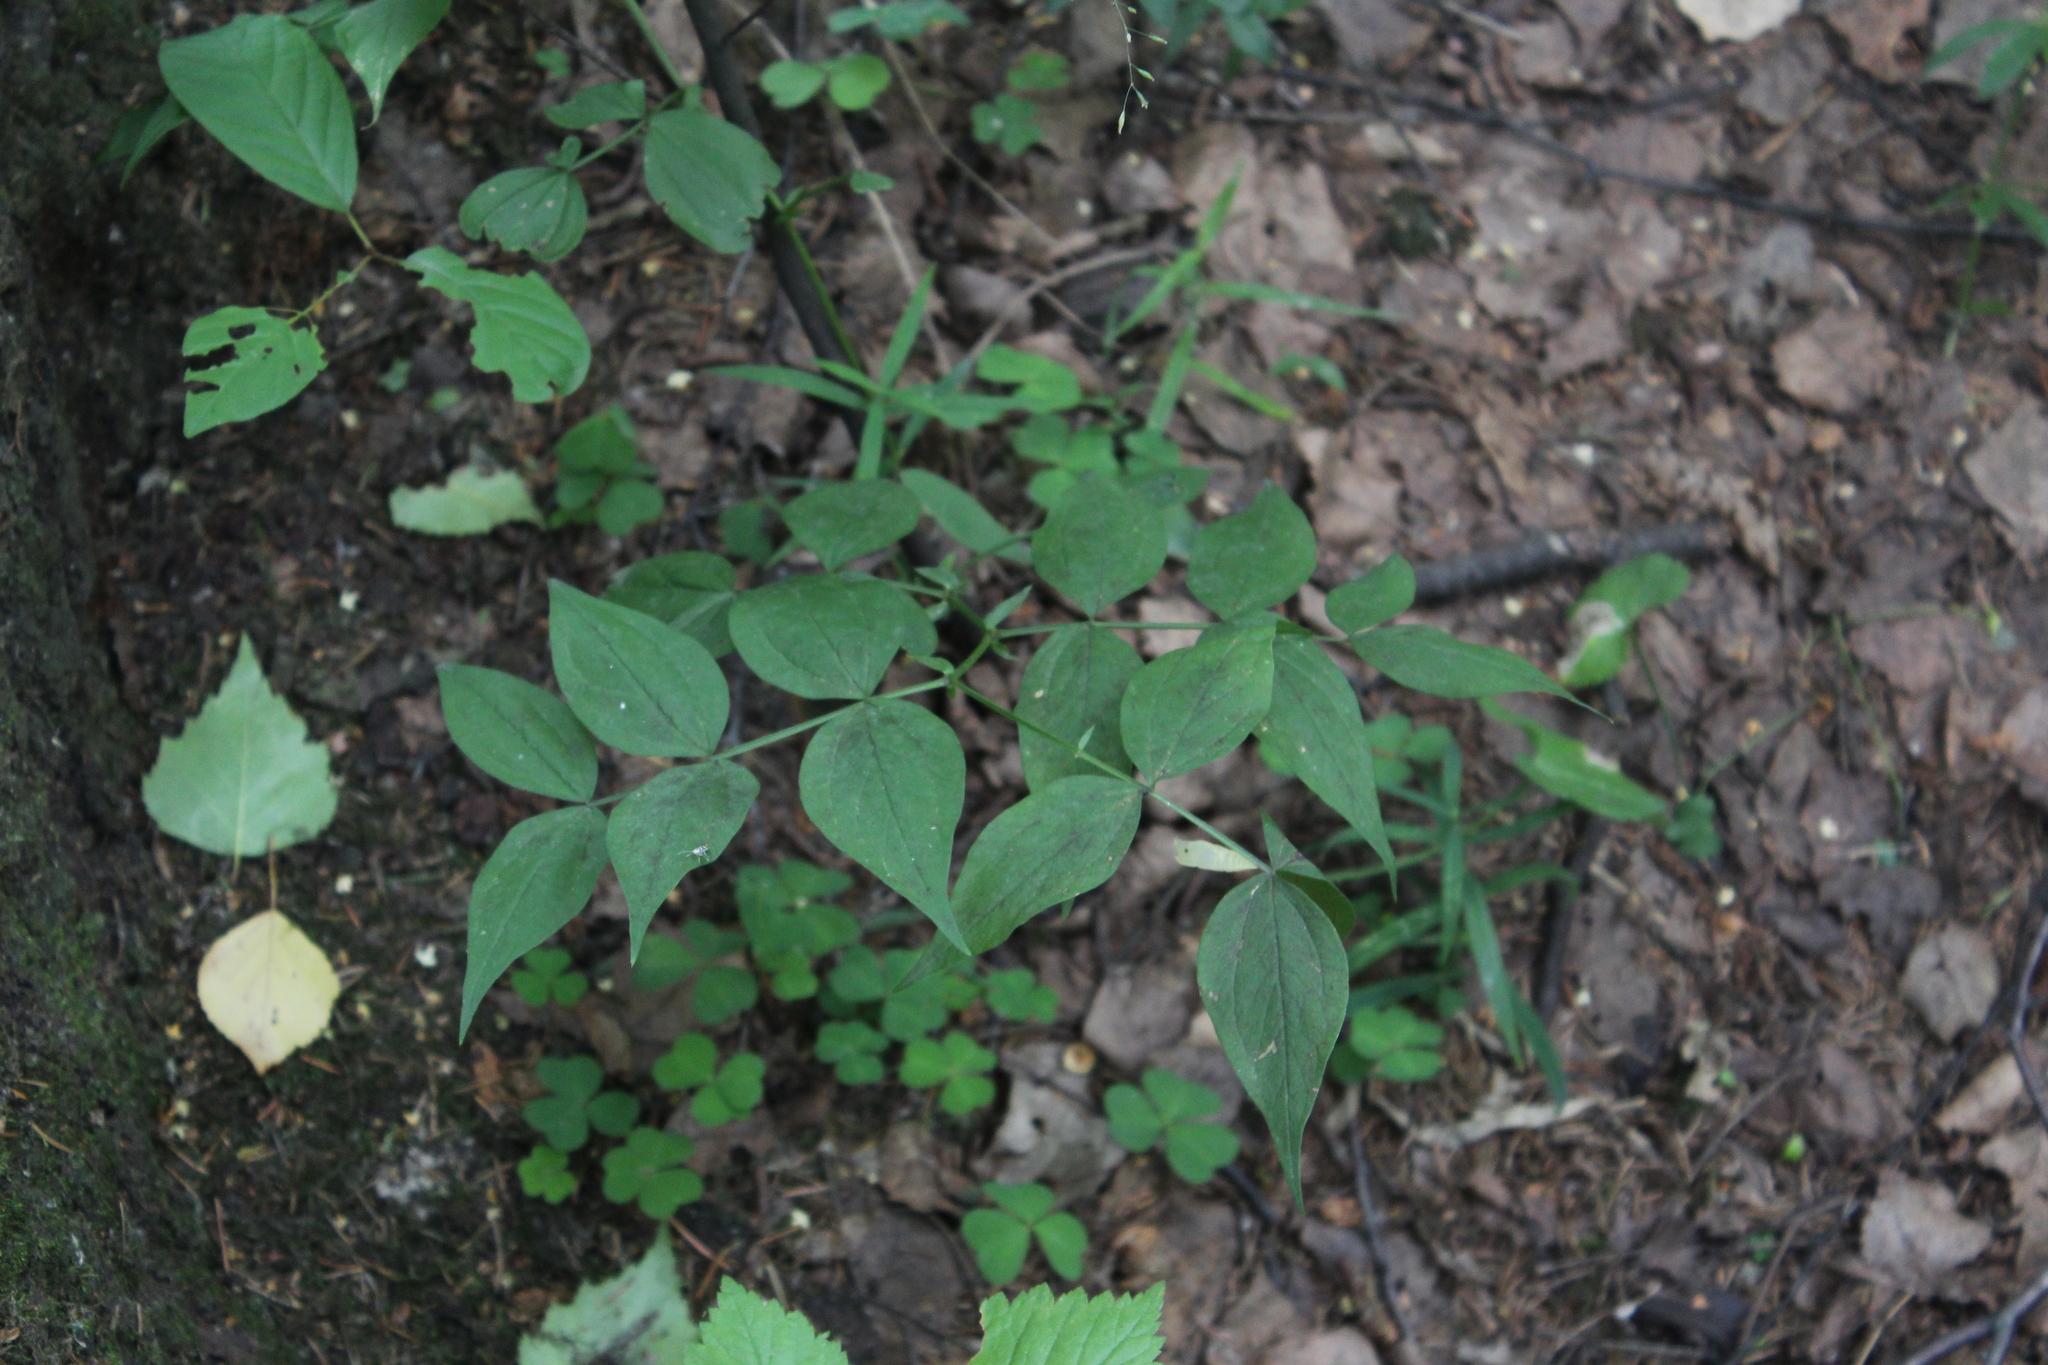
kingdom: Plantae
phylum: Tracheophyta
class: Magnoliopsida
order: Fabales
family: Fabaceae
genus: Lathyrus
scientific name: Lathyrus vernus
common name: Spring pea
